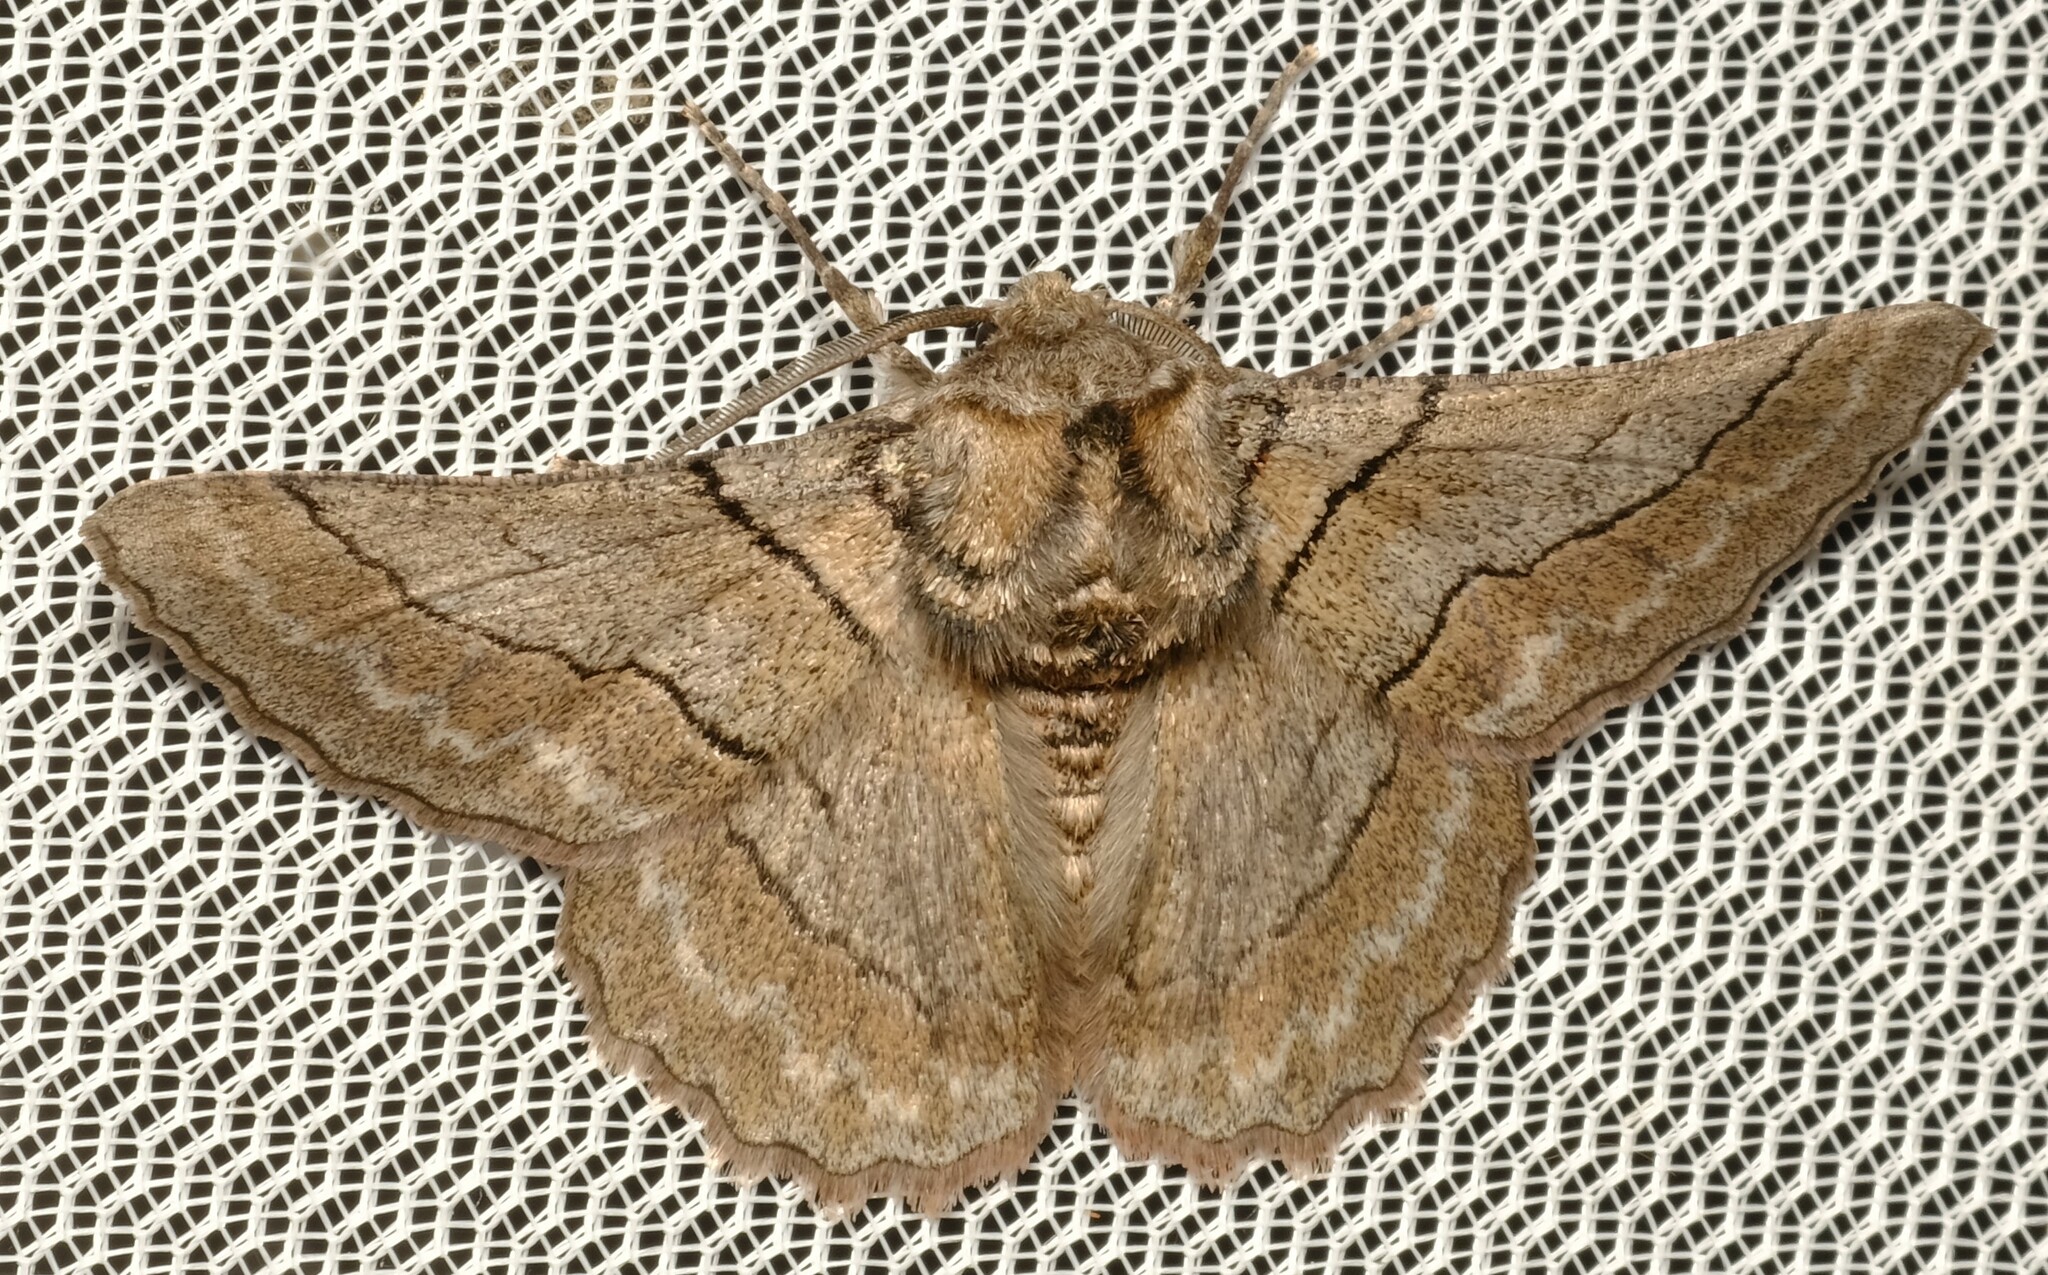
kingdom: Animalia
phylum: Arthropoda
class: Insecta
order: Lepidoptera
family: Geometridae
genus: Hypobapta
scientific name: Hypobapta tachyhalotaria
